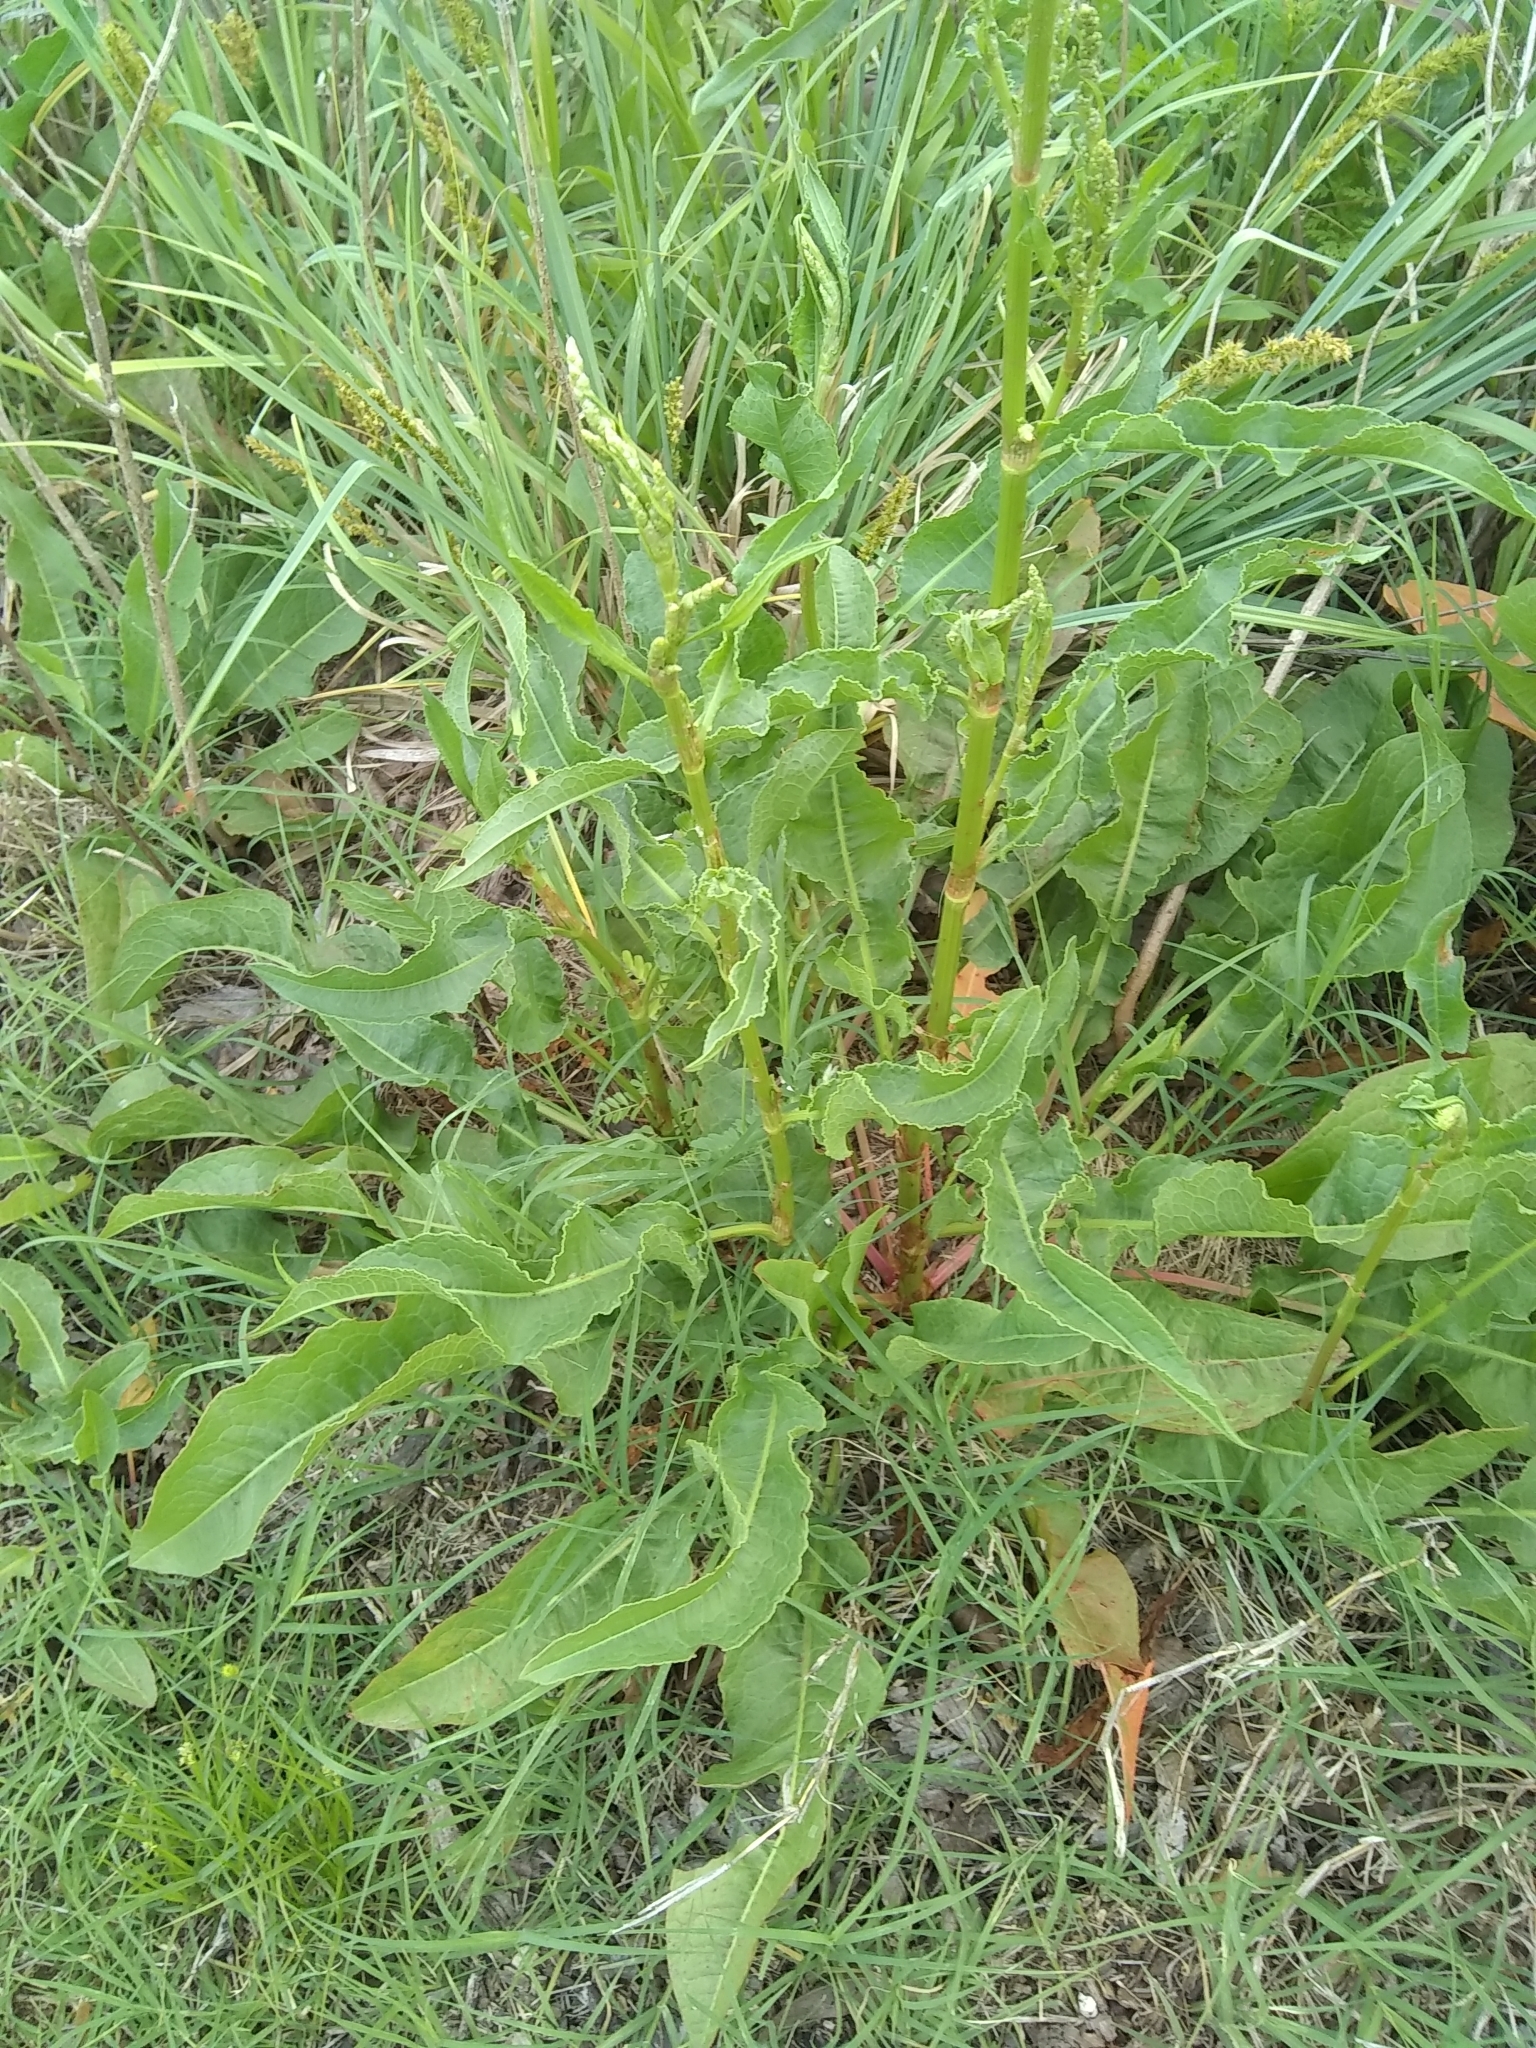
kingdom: Plantae
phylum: Tracheophyta
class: Magnoliopsida
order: Caryophyllales
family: Polygonaceae
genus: Rumex
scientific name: Rumex crispus
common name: Curled dock
